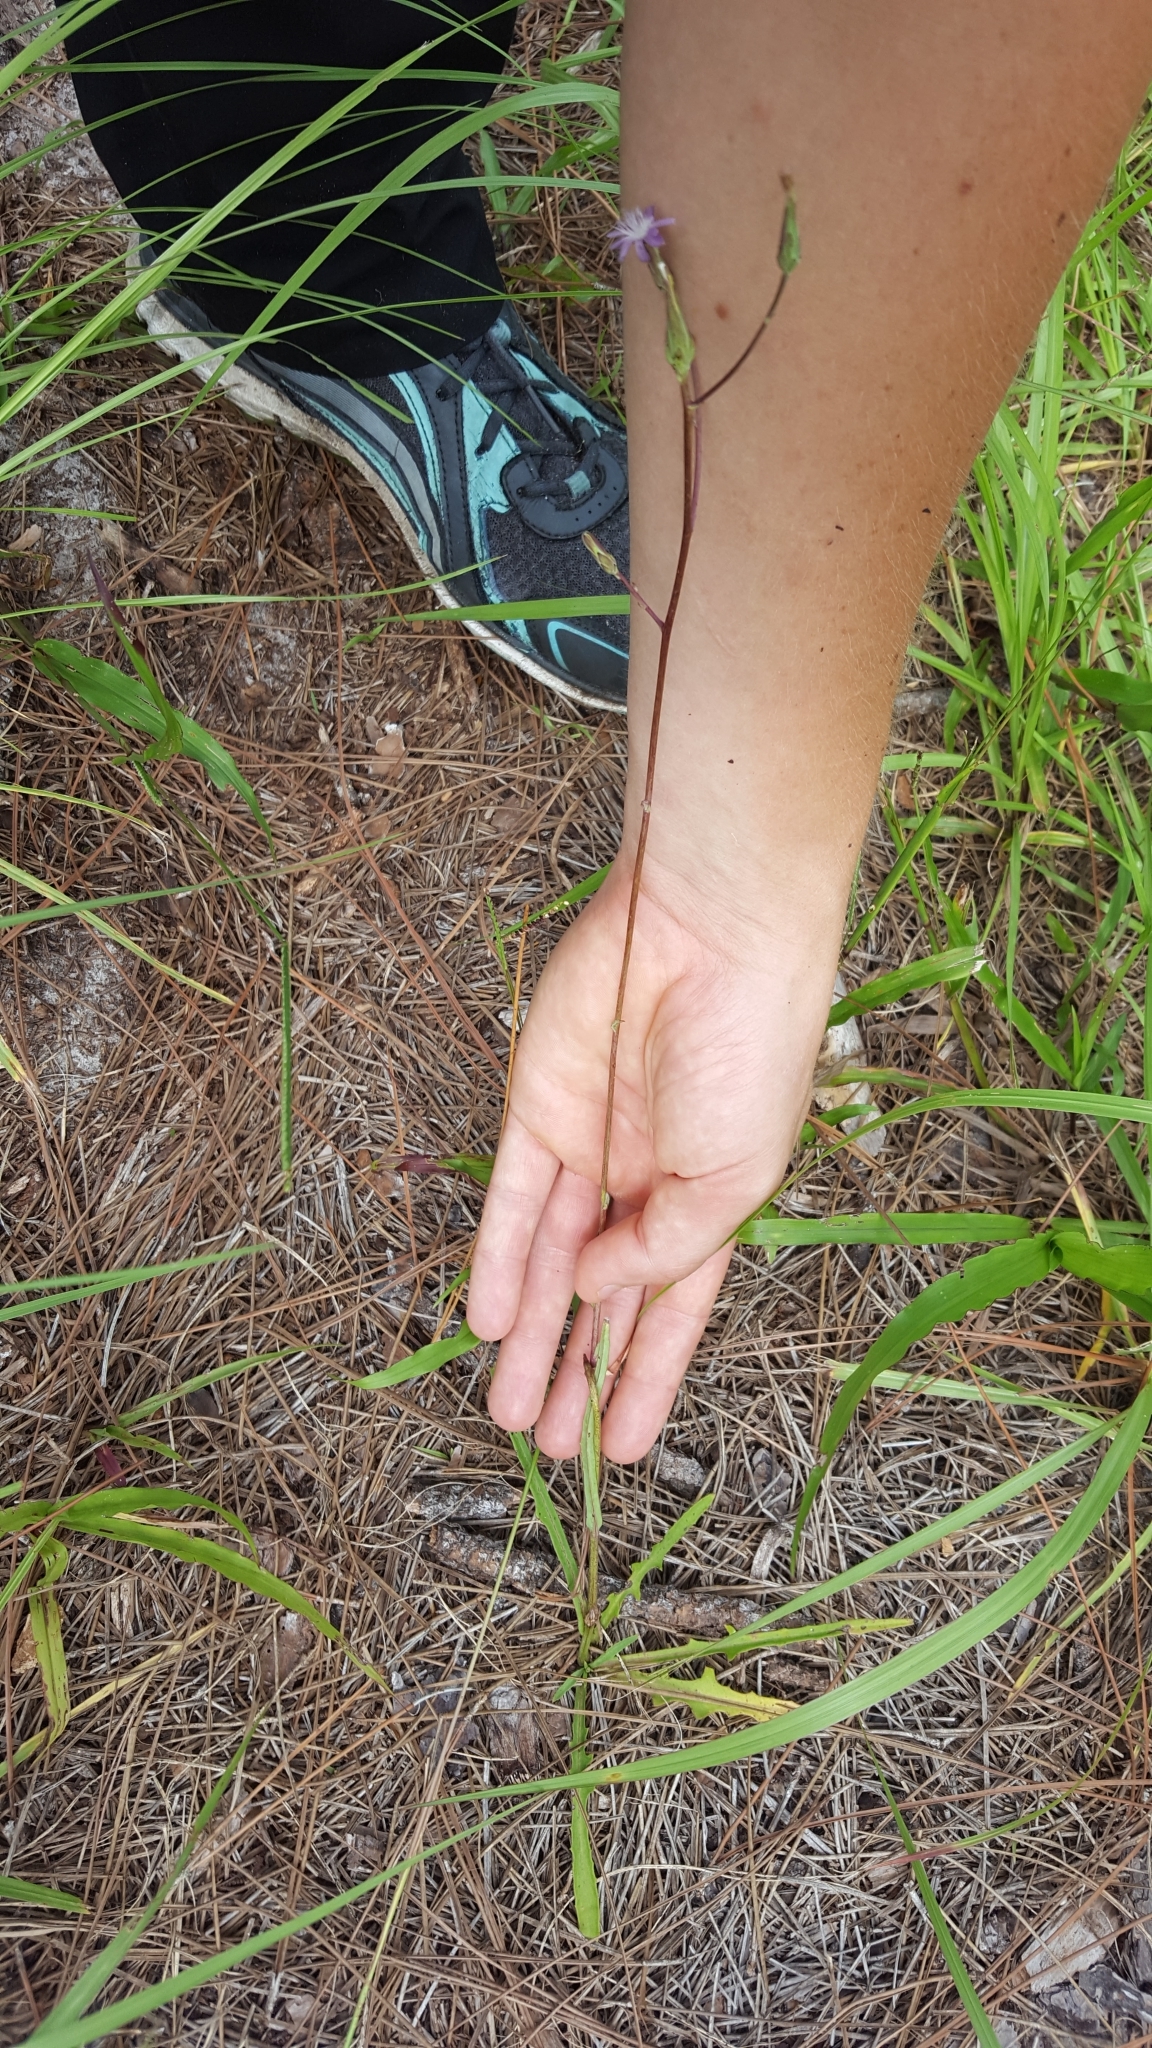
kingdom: Plantae
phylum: Tracheophyta
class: Magnoliopsida
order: Asterales
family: Asteraceae
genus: Lactuca
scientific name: Lactuca graminifolia
